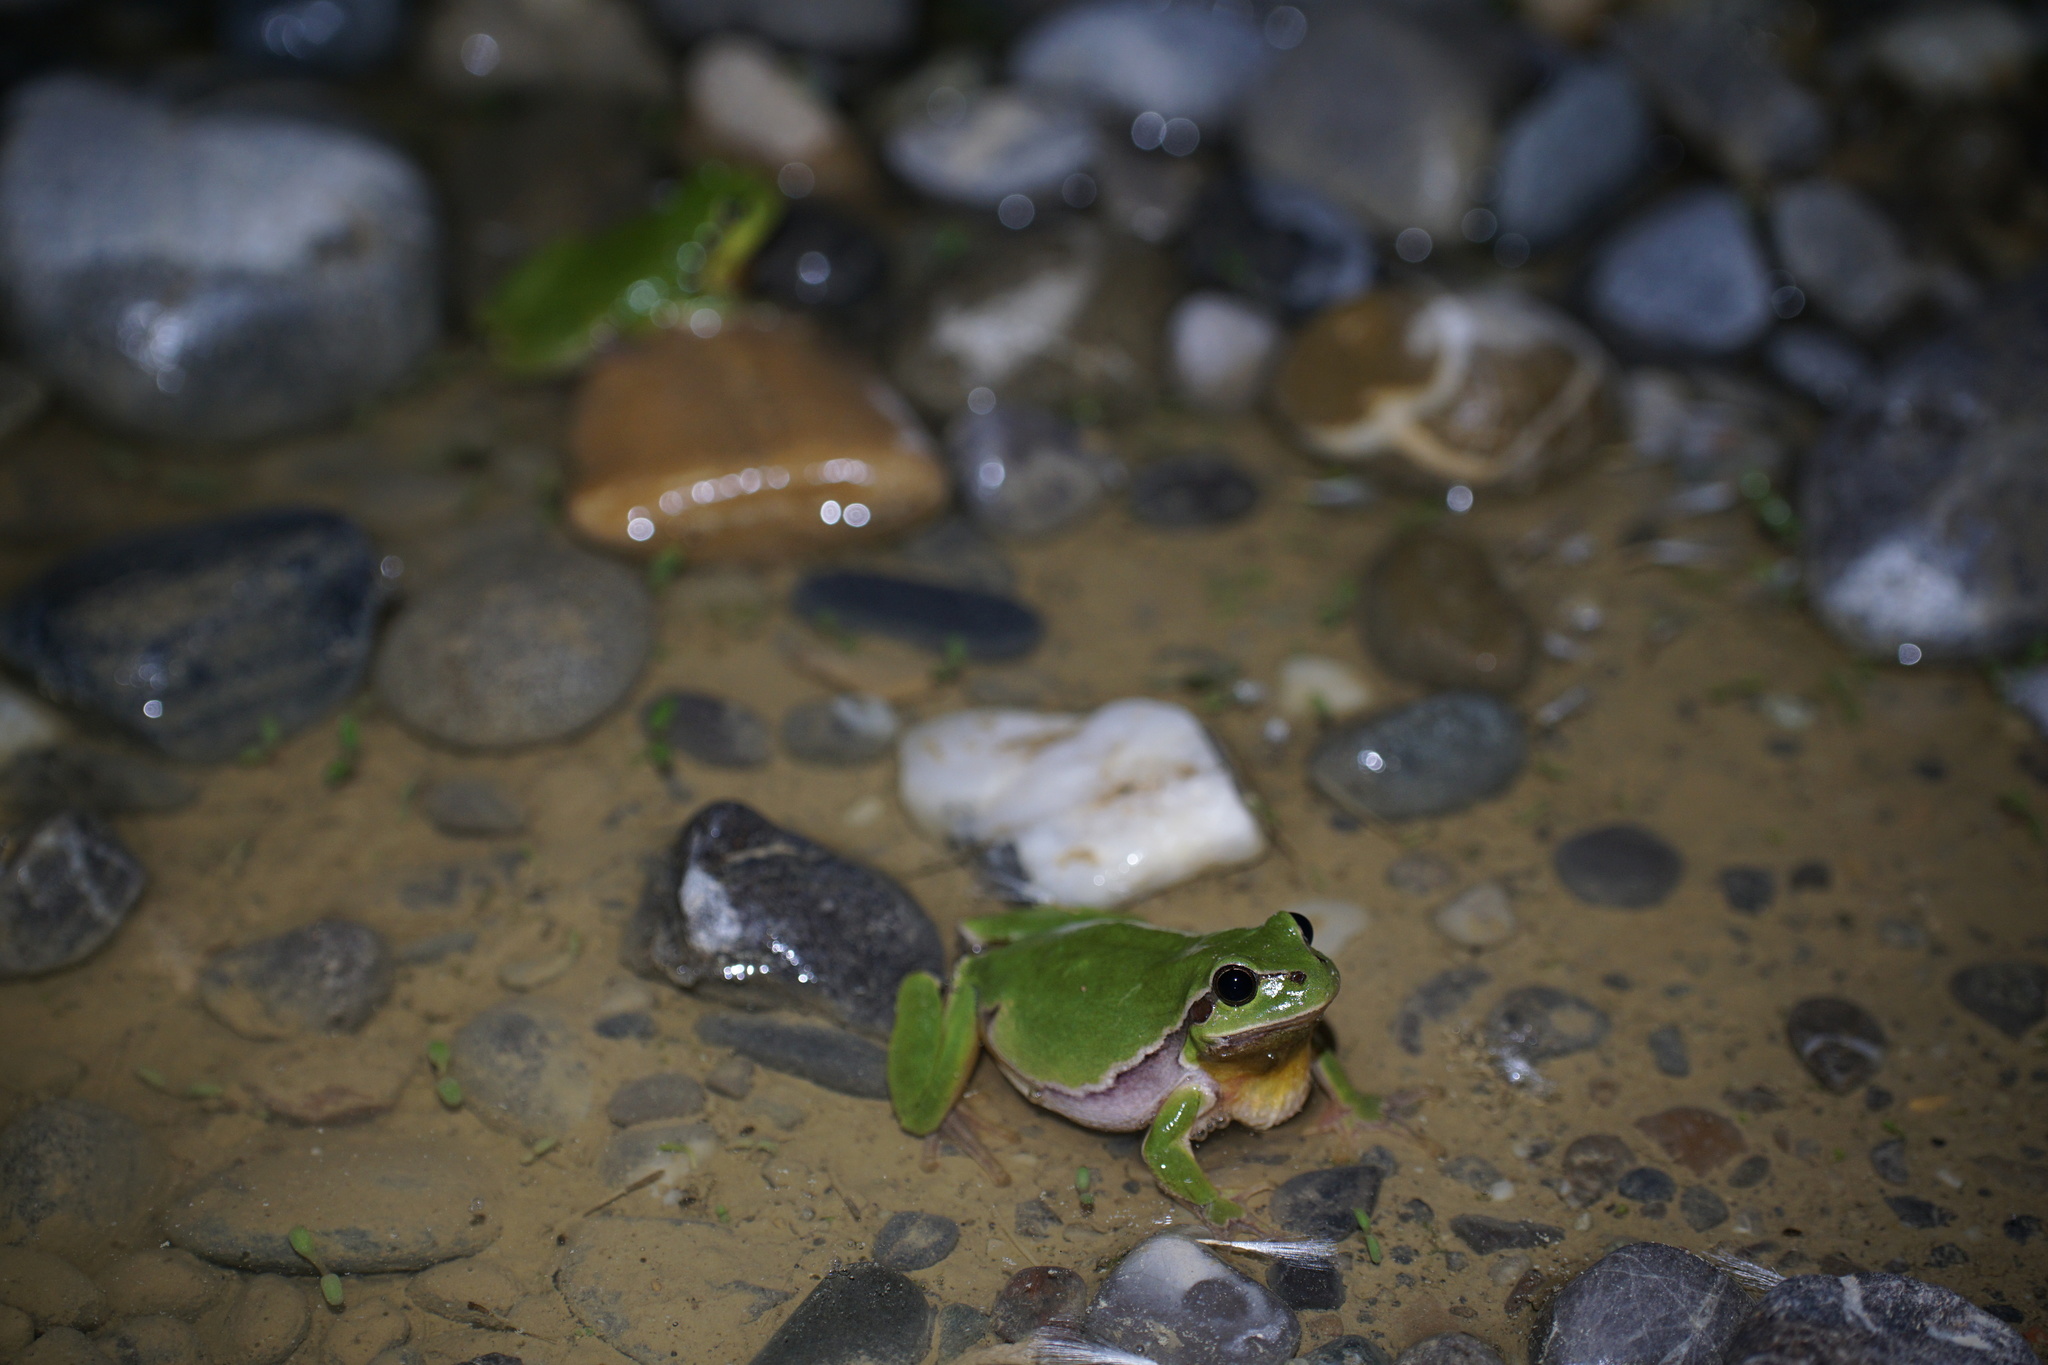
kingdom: Animalia
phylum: Chordata
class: Amphibia
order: Anura
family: Hylidae
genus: Hyla
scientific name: Hyla arborea
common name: Common tree frog
